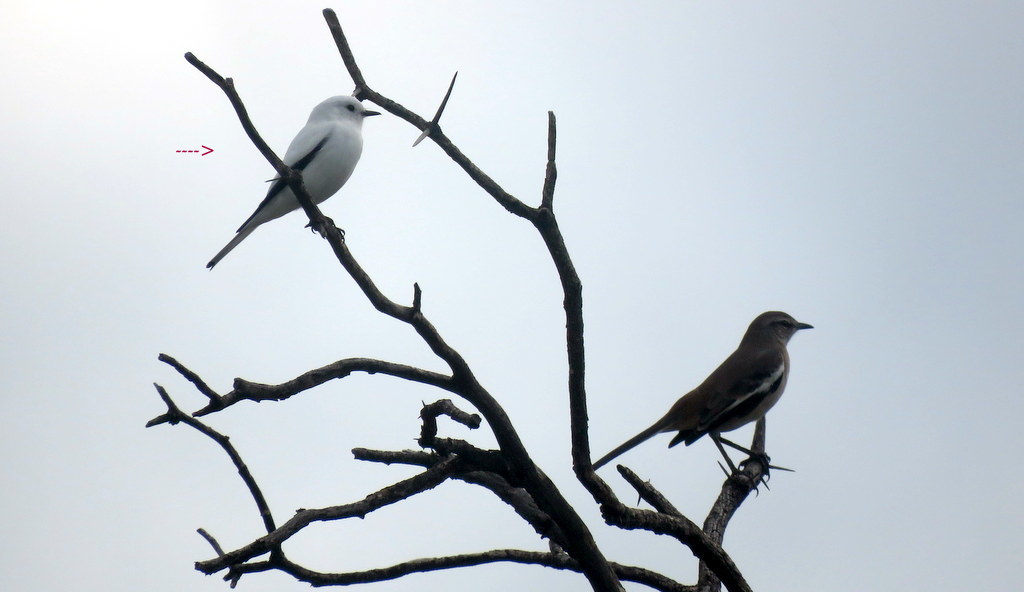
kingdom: Animalia
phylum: Chordata
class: Aves
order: Passeriformes
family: Tyrannidae
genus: Xolmis
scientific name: Xolmis irupero
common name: White monjita
